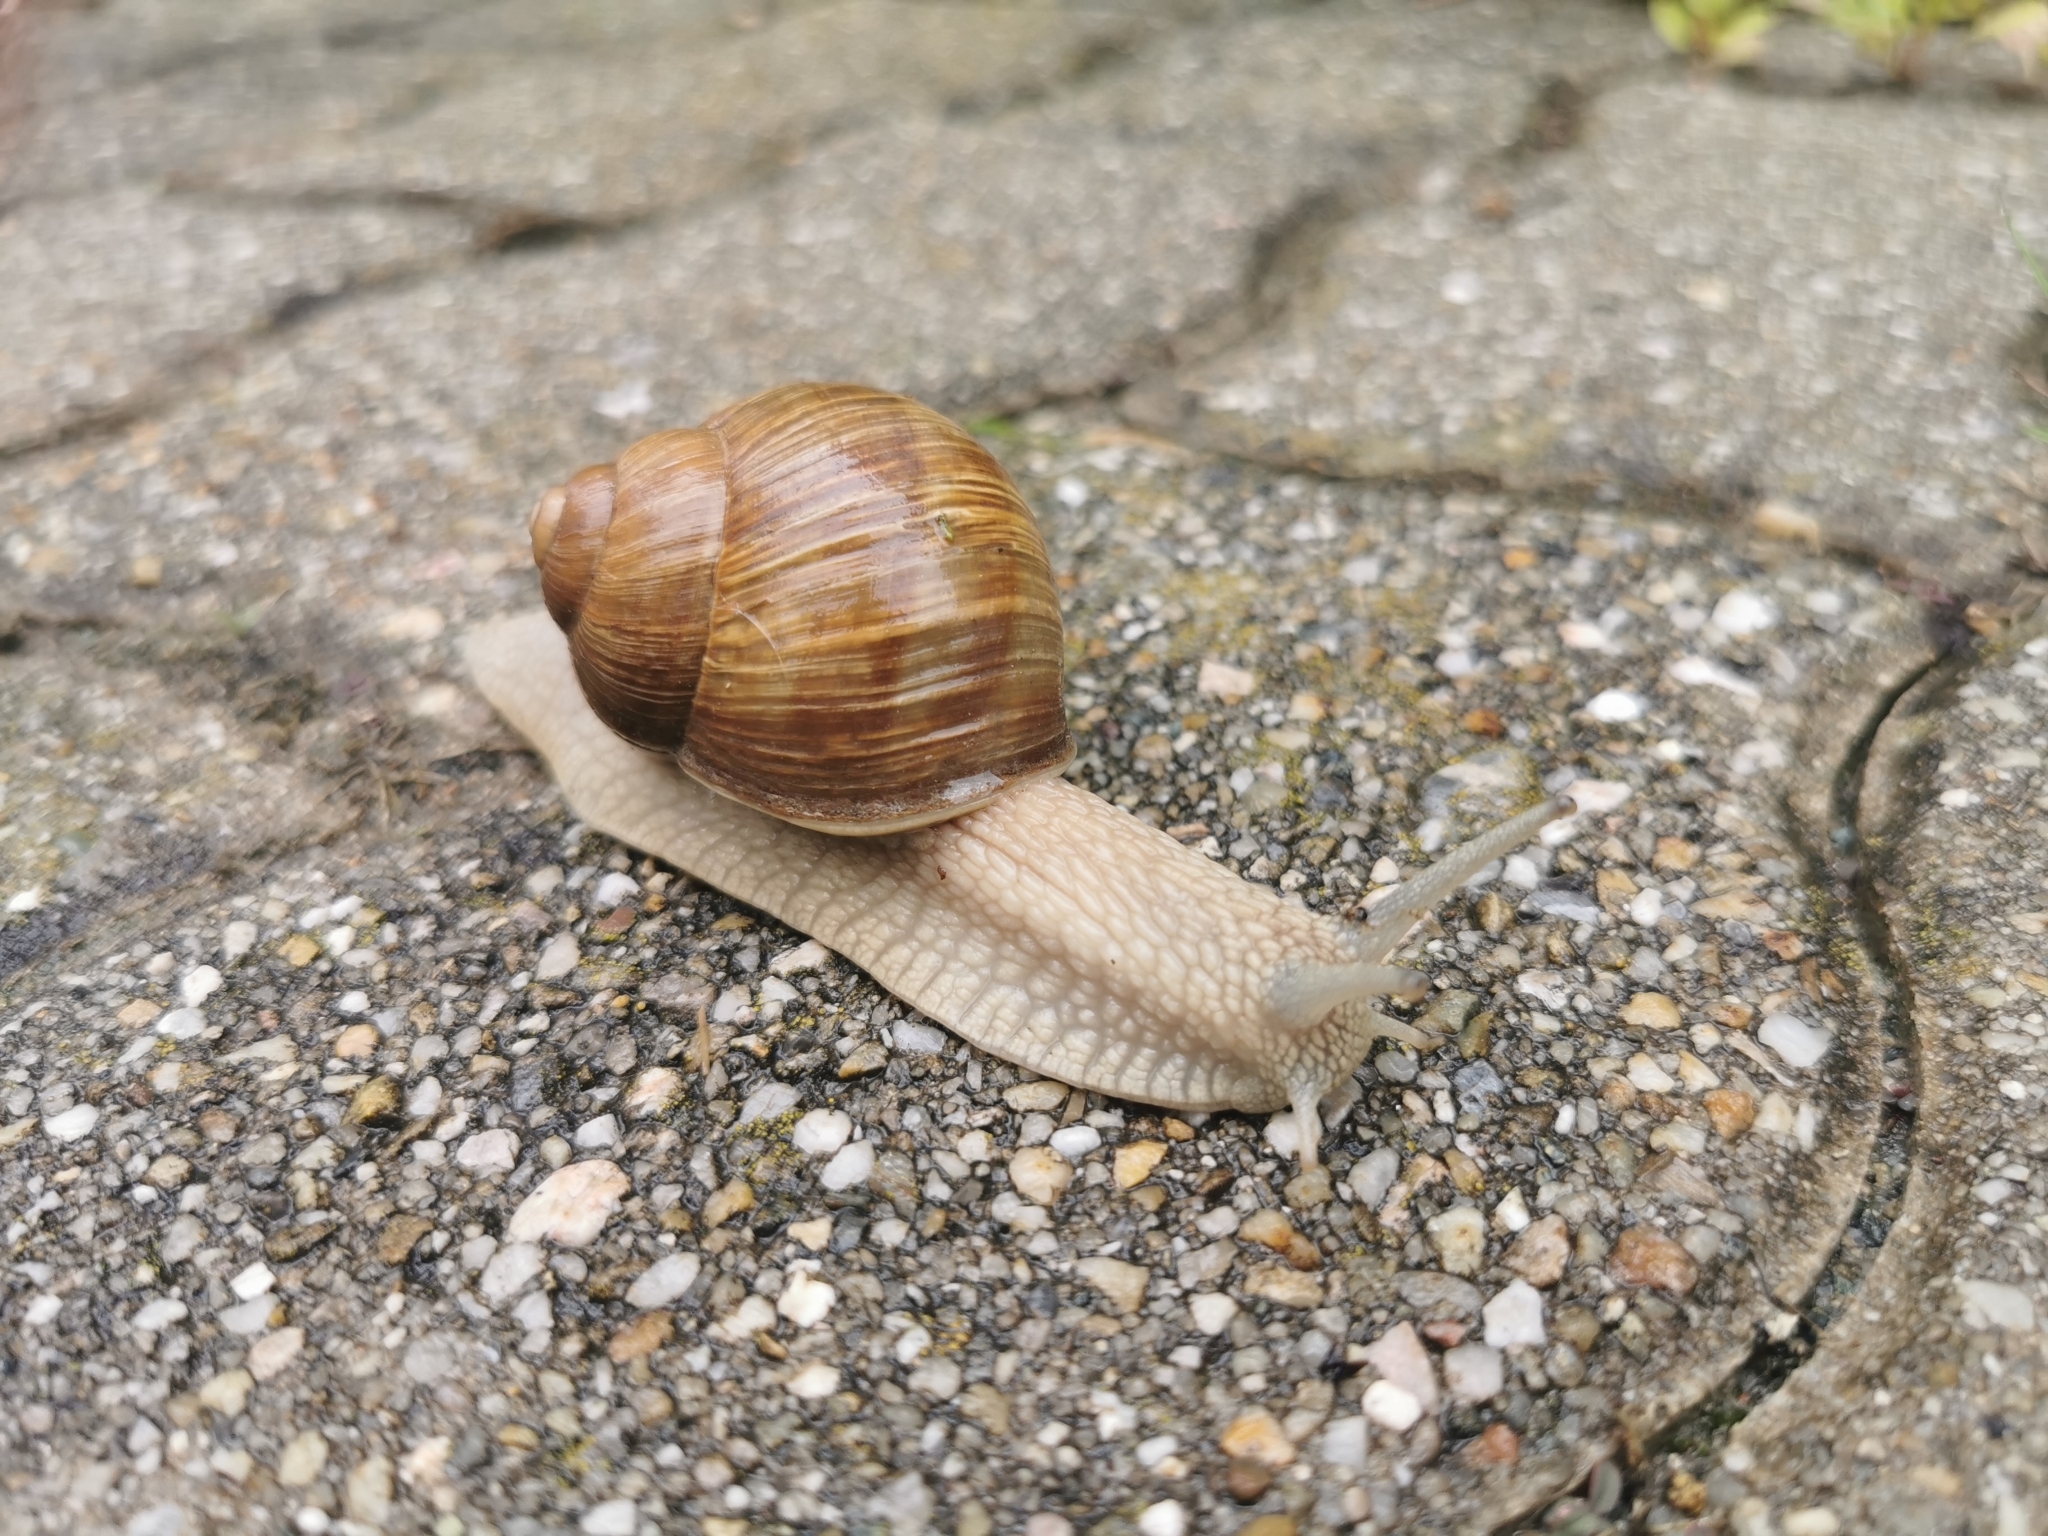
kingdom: Animalia
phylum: Mollusca
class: Gastropoda
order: Stylommatophora
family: Helicidae
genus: Helix
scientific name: Helix pomatia
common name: Roman snail
